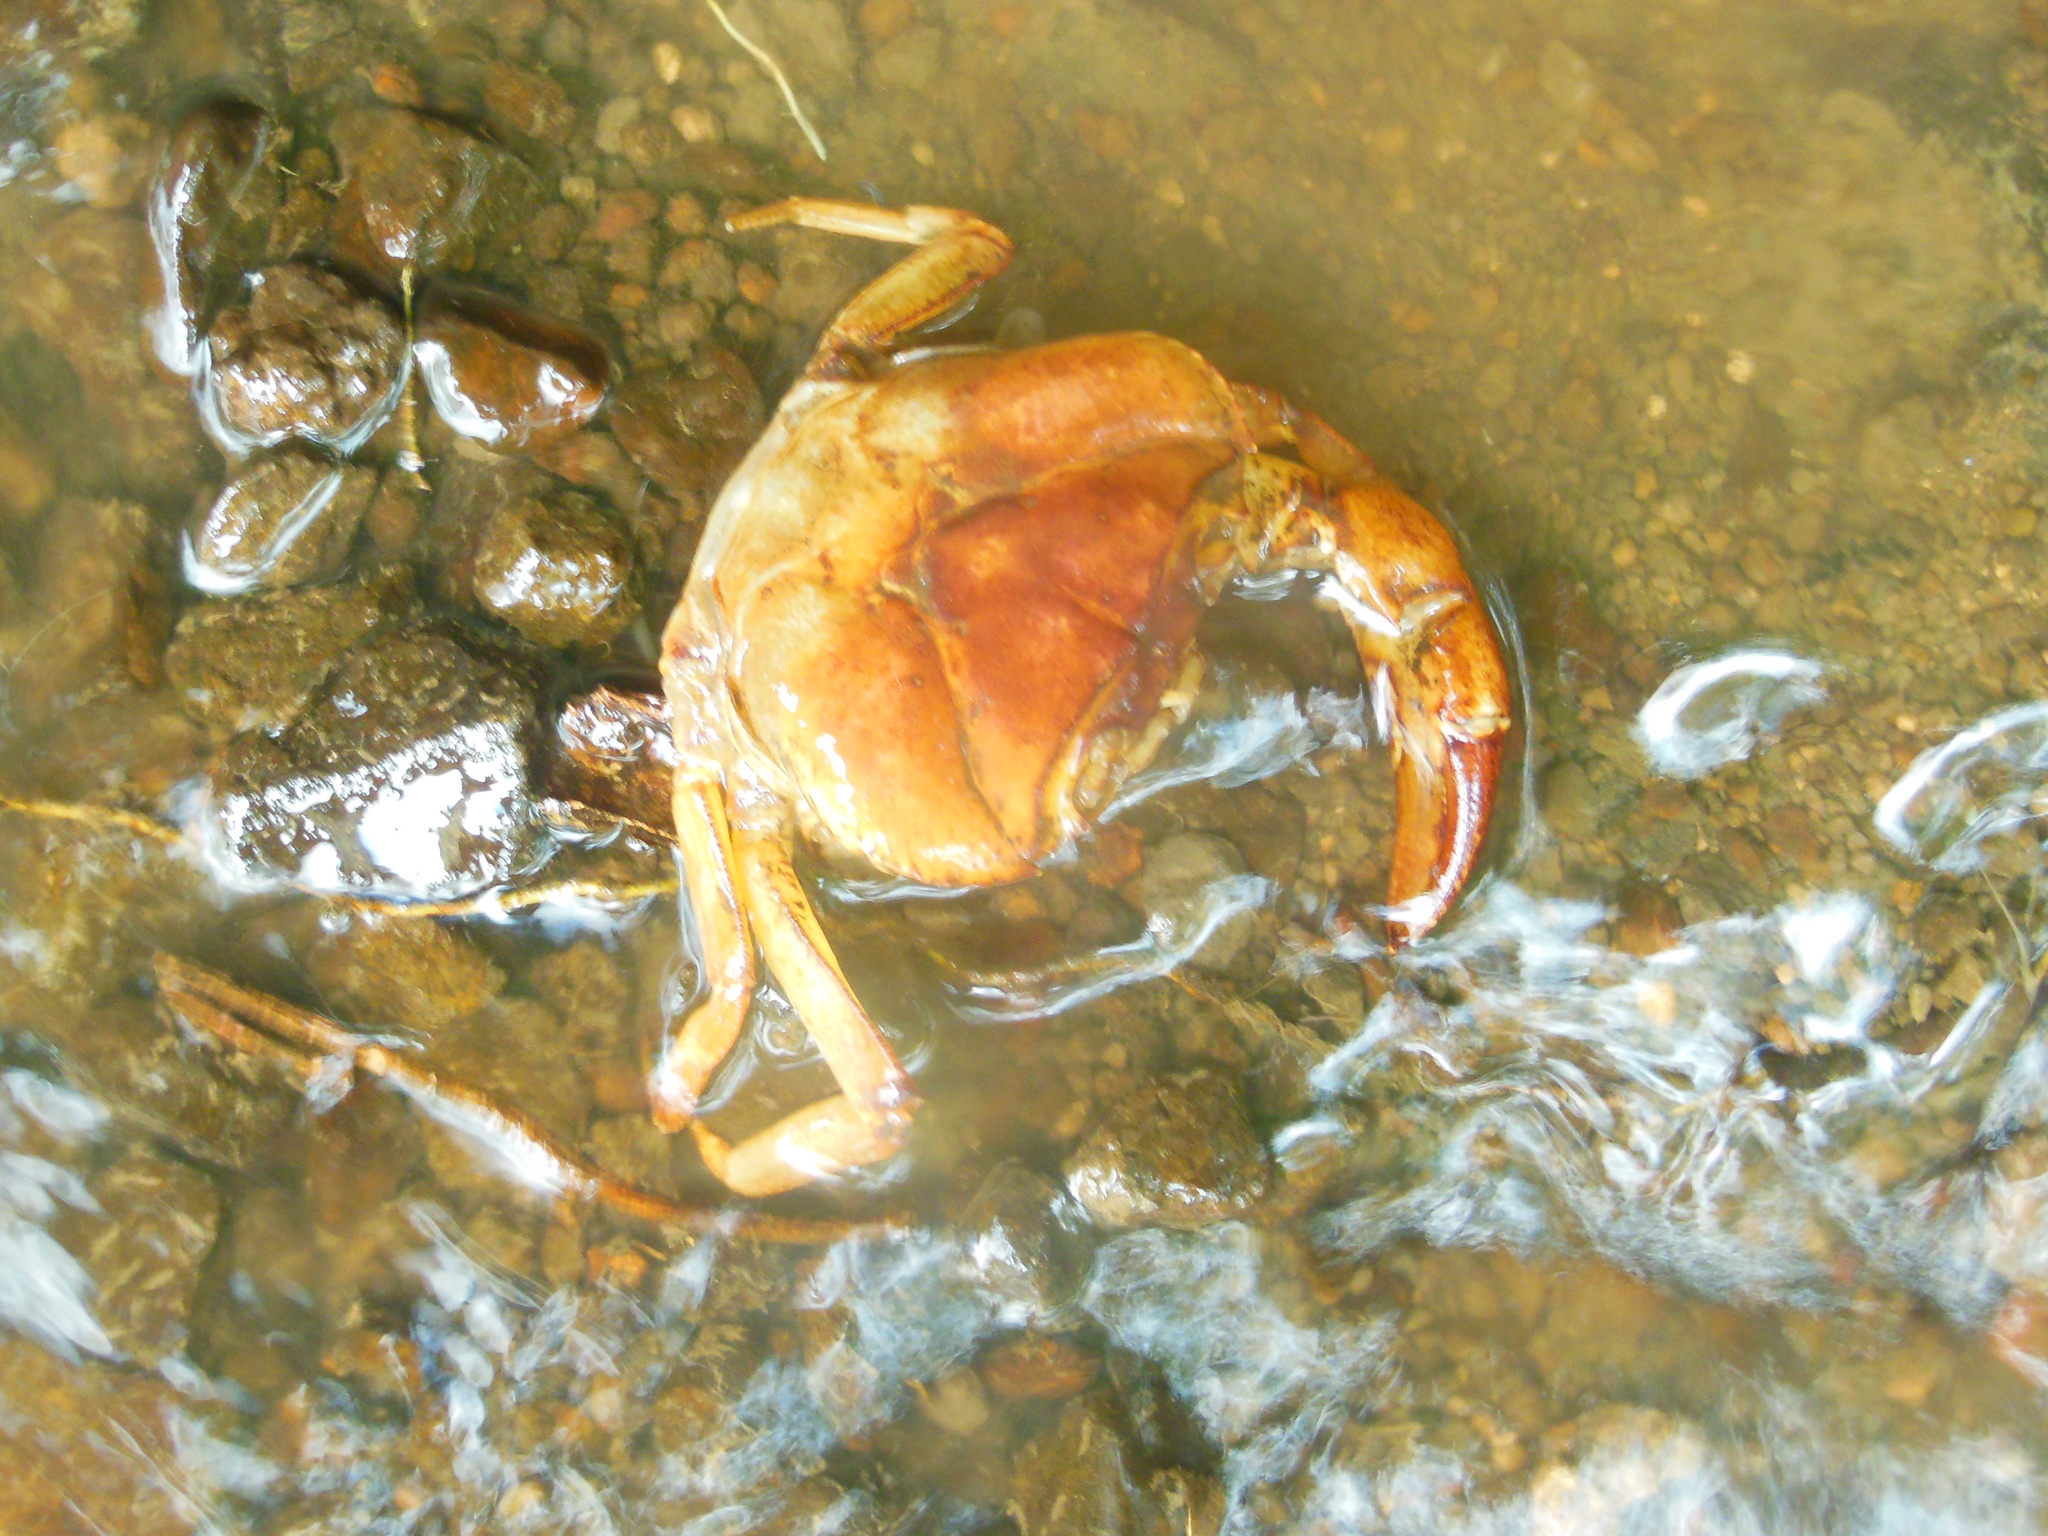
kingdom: Animalia
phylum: Arthropoda
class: Malacostraca
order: Decapoda
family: Gecarcinucidae
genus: Barytelphusa
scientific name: Barytelphusa cunicularis
